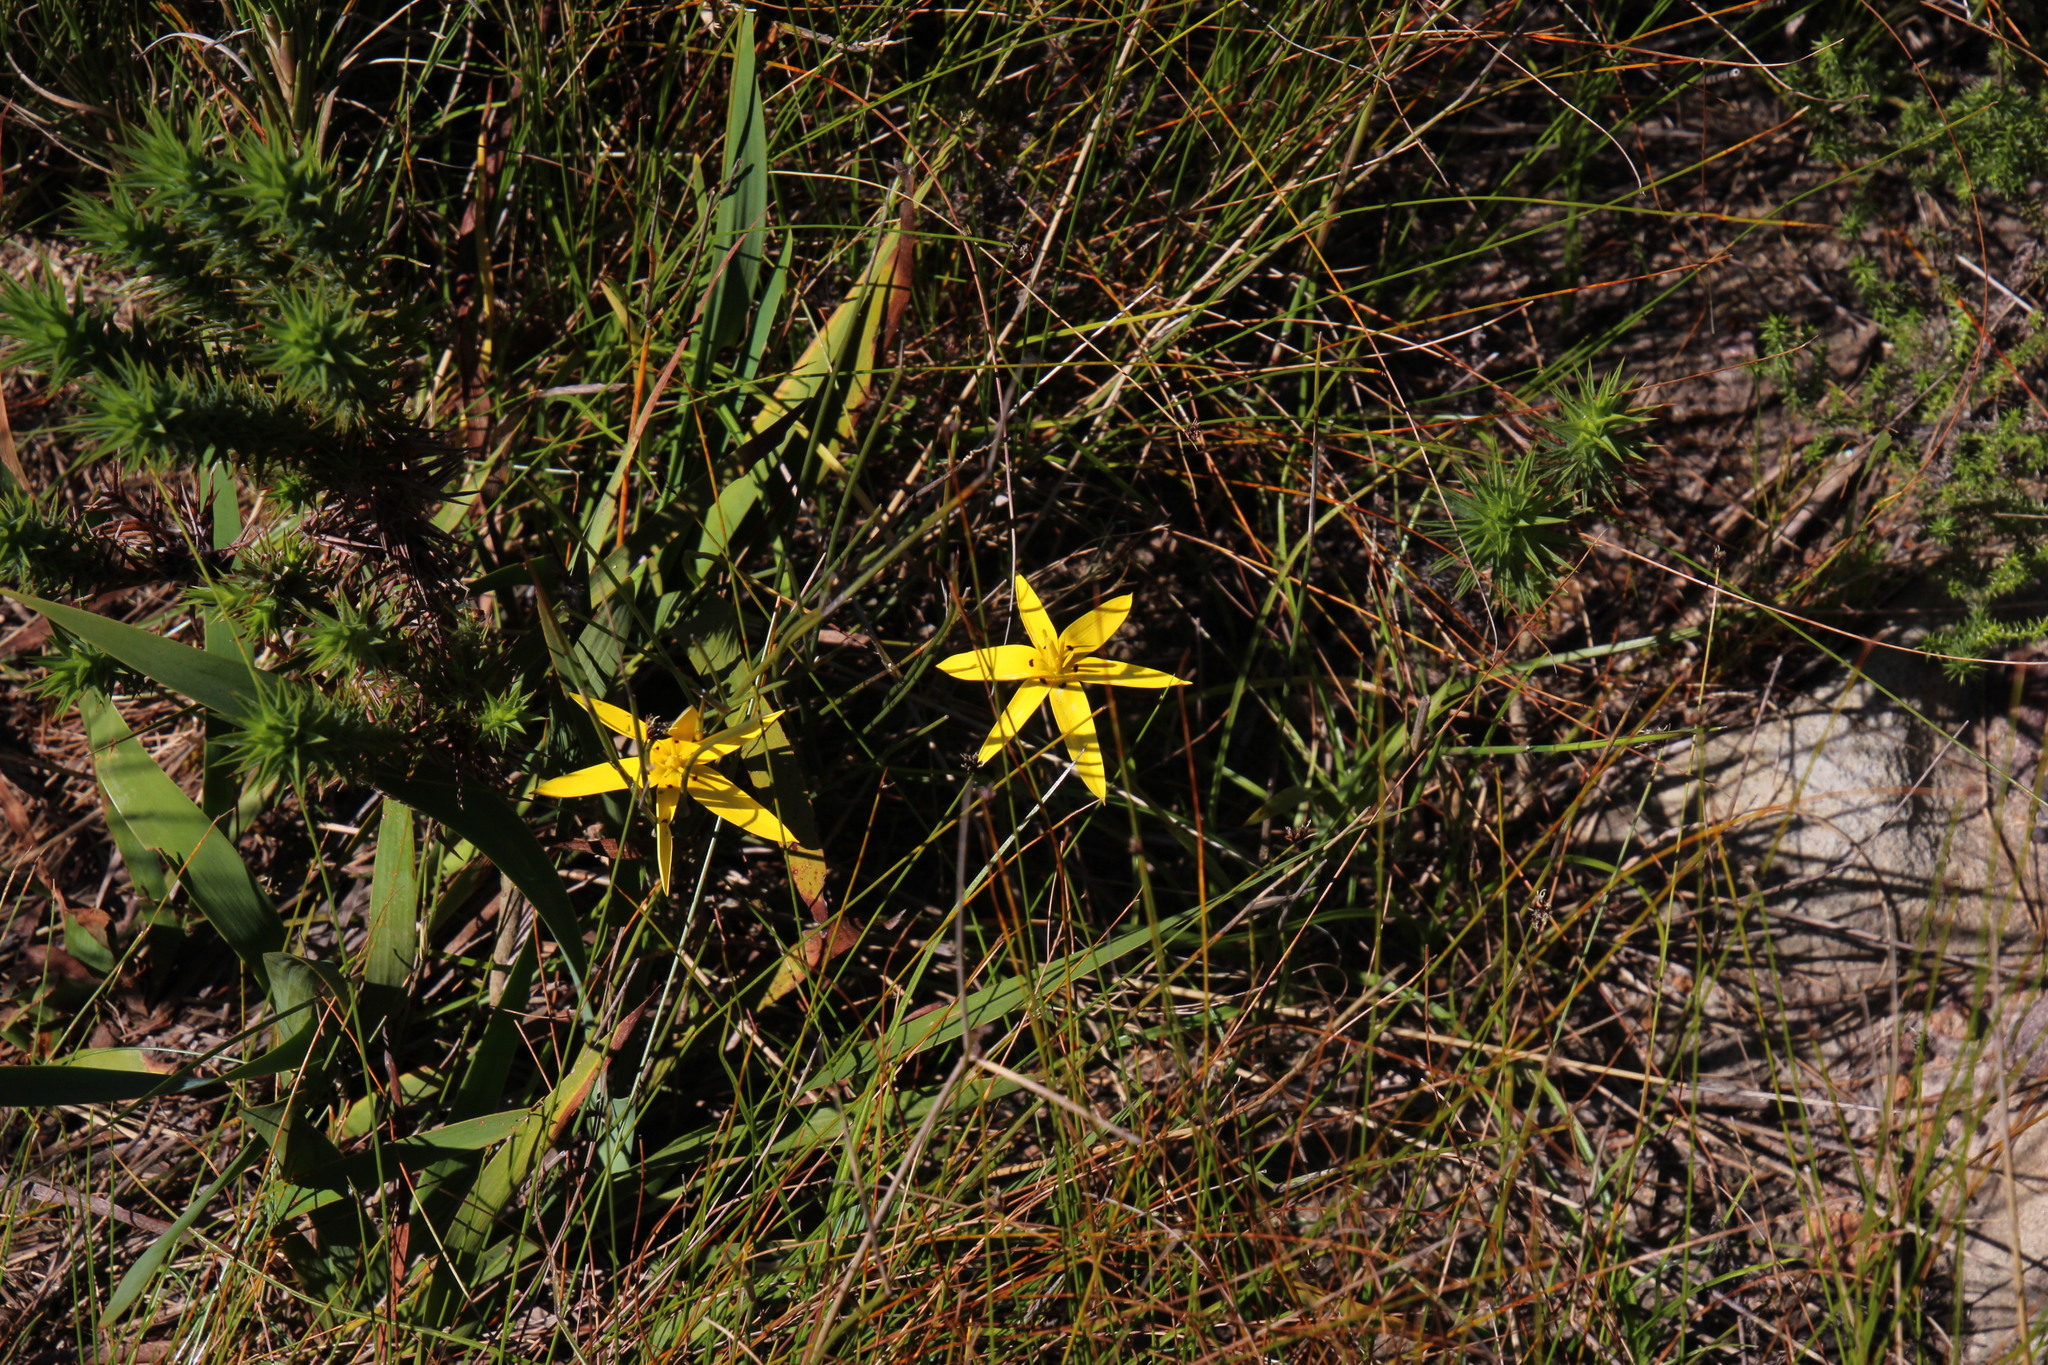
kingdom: Plantae
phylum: Tracheophyta
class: Liliopsida
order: Asparagales
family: Hypoxidaceae
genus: Pauridia
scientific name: Pauridia capensis
